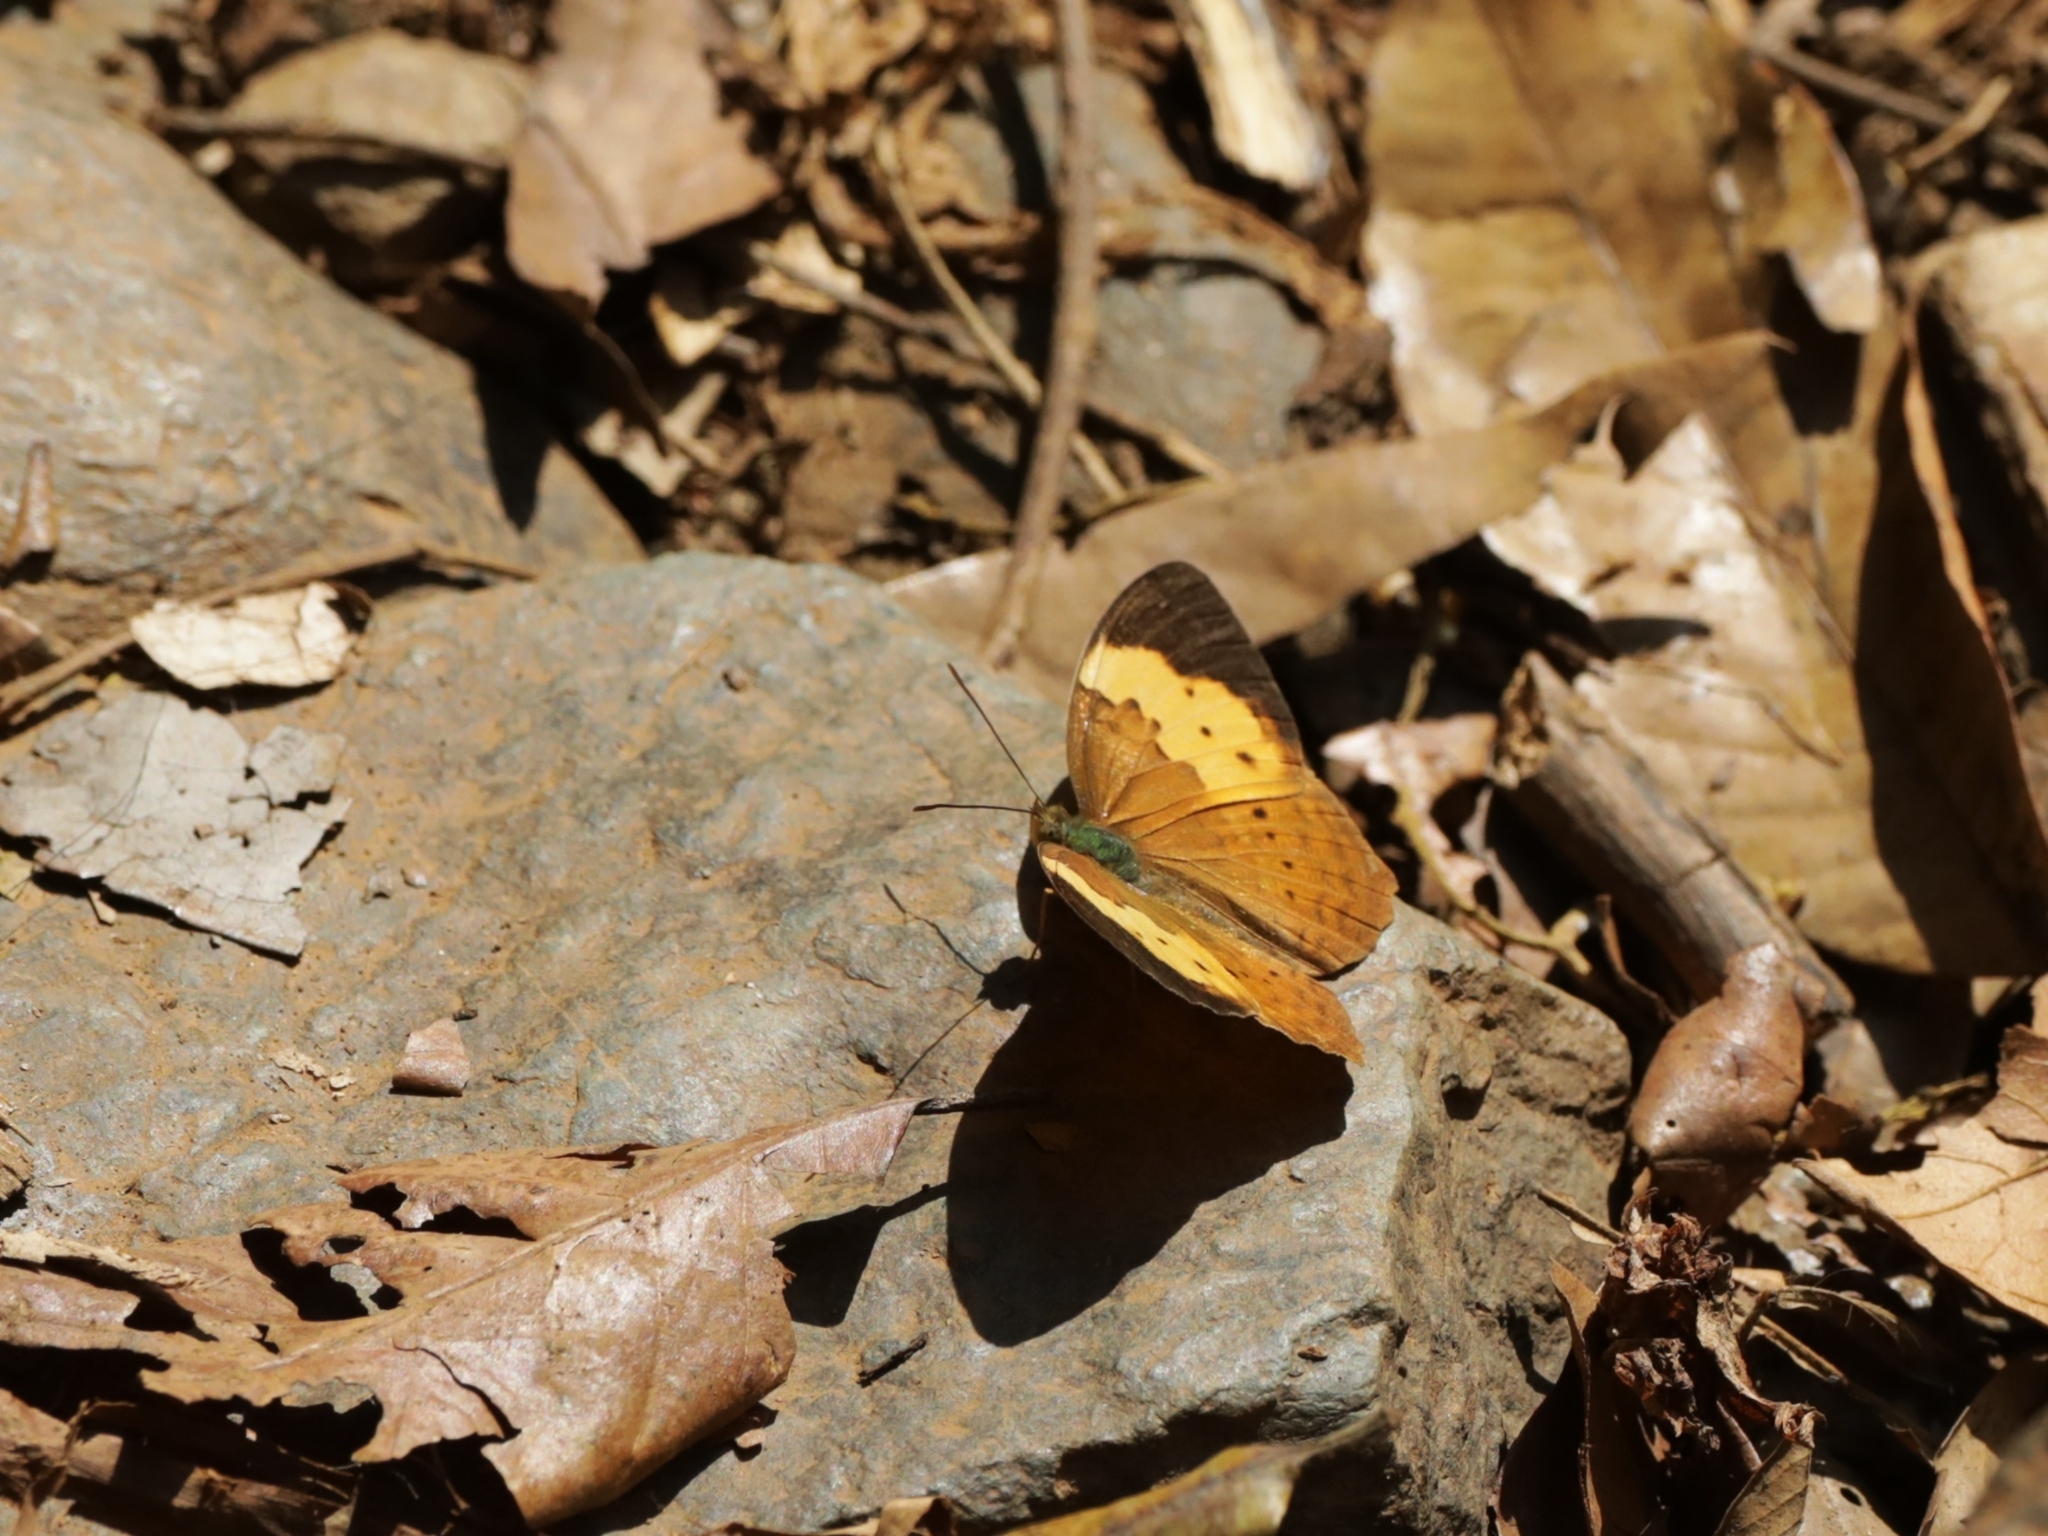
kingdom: Animalia
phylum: Arthropoda
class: Insecta
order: Lepidoptera
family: Nymphalidae
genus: Cupha
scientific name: Cupha erymanthis
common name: Rustic
